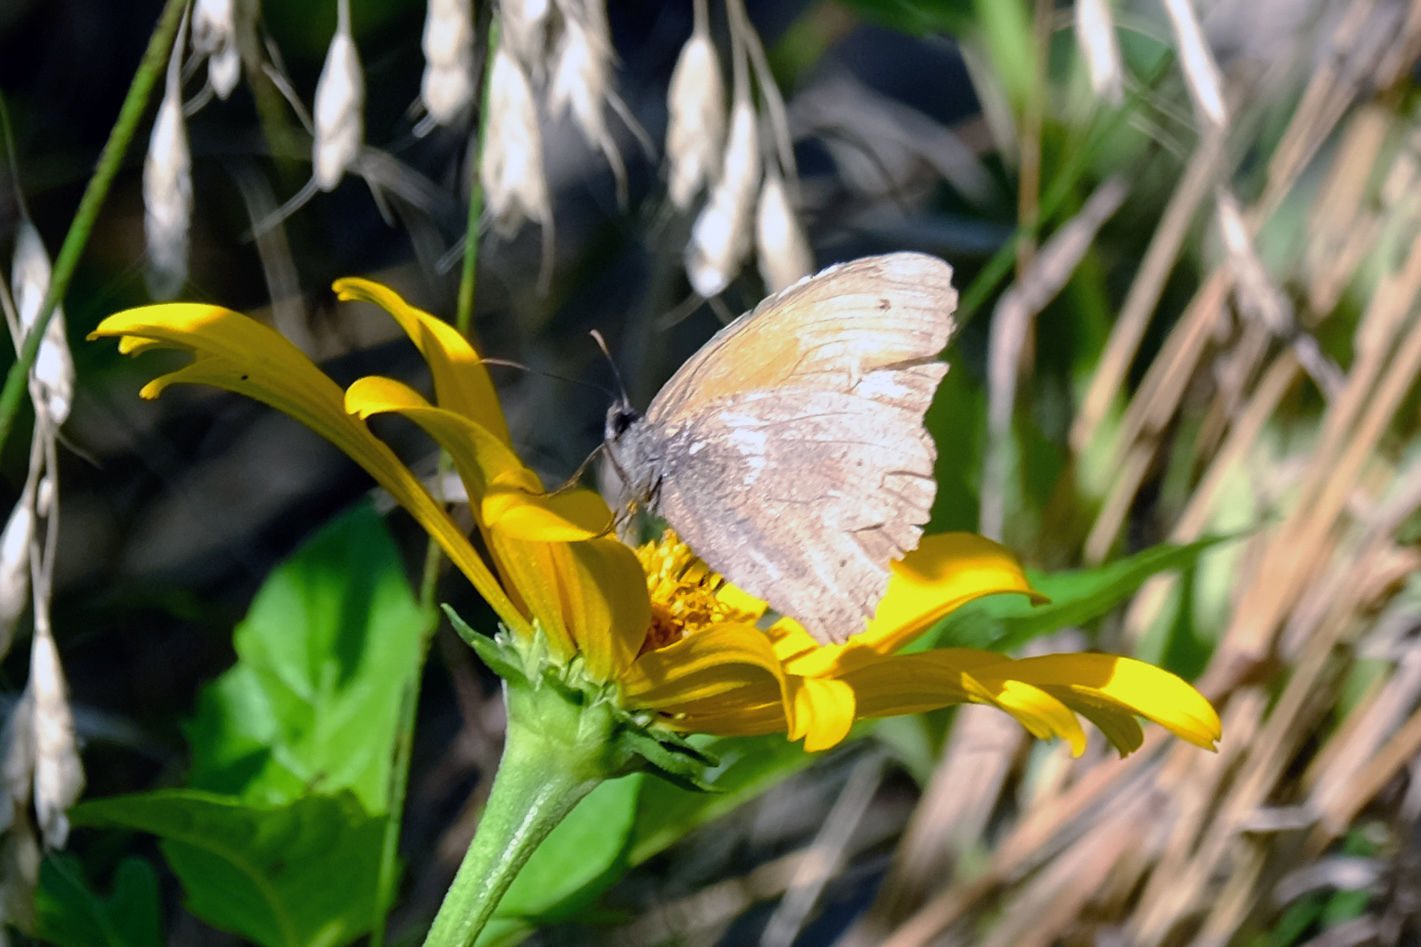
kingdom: Animalia
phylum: Arthropoda
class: Insecta
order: Lepidoptera
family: Nymphalidae
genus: Maniola
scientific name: Maniola jurtina
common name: Meadow brown
